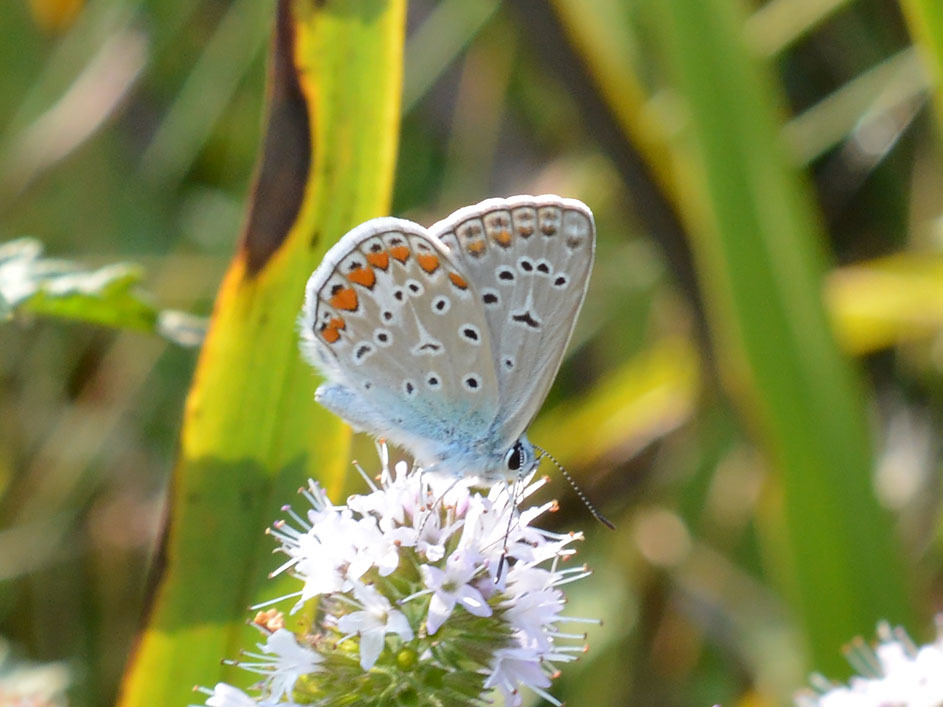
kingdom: Animalia
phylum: Arthropoda
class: Insecta
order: Lepidoptera
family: Lycaenidae
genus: Polyommatus
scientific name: Polyommatus icarus
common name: Common blue
